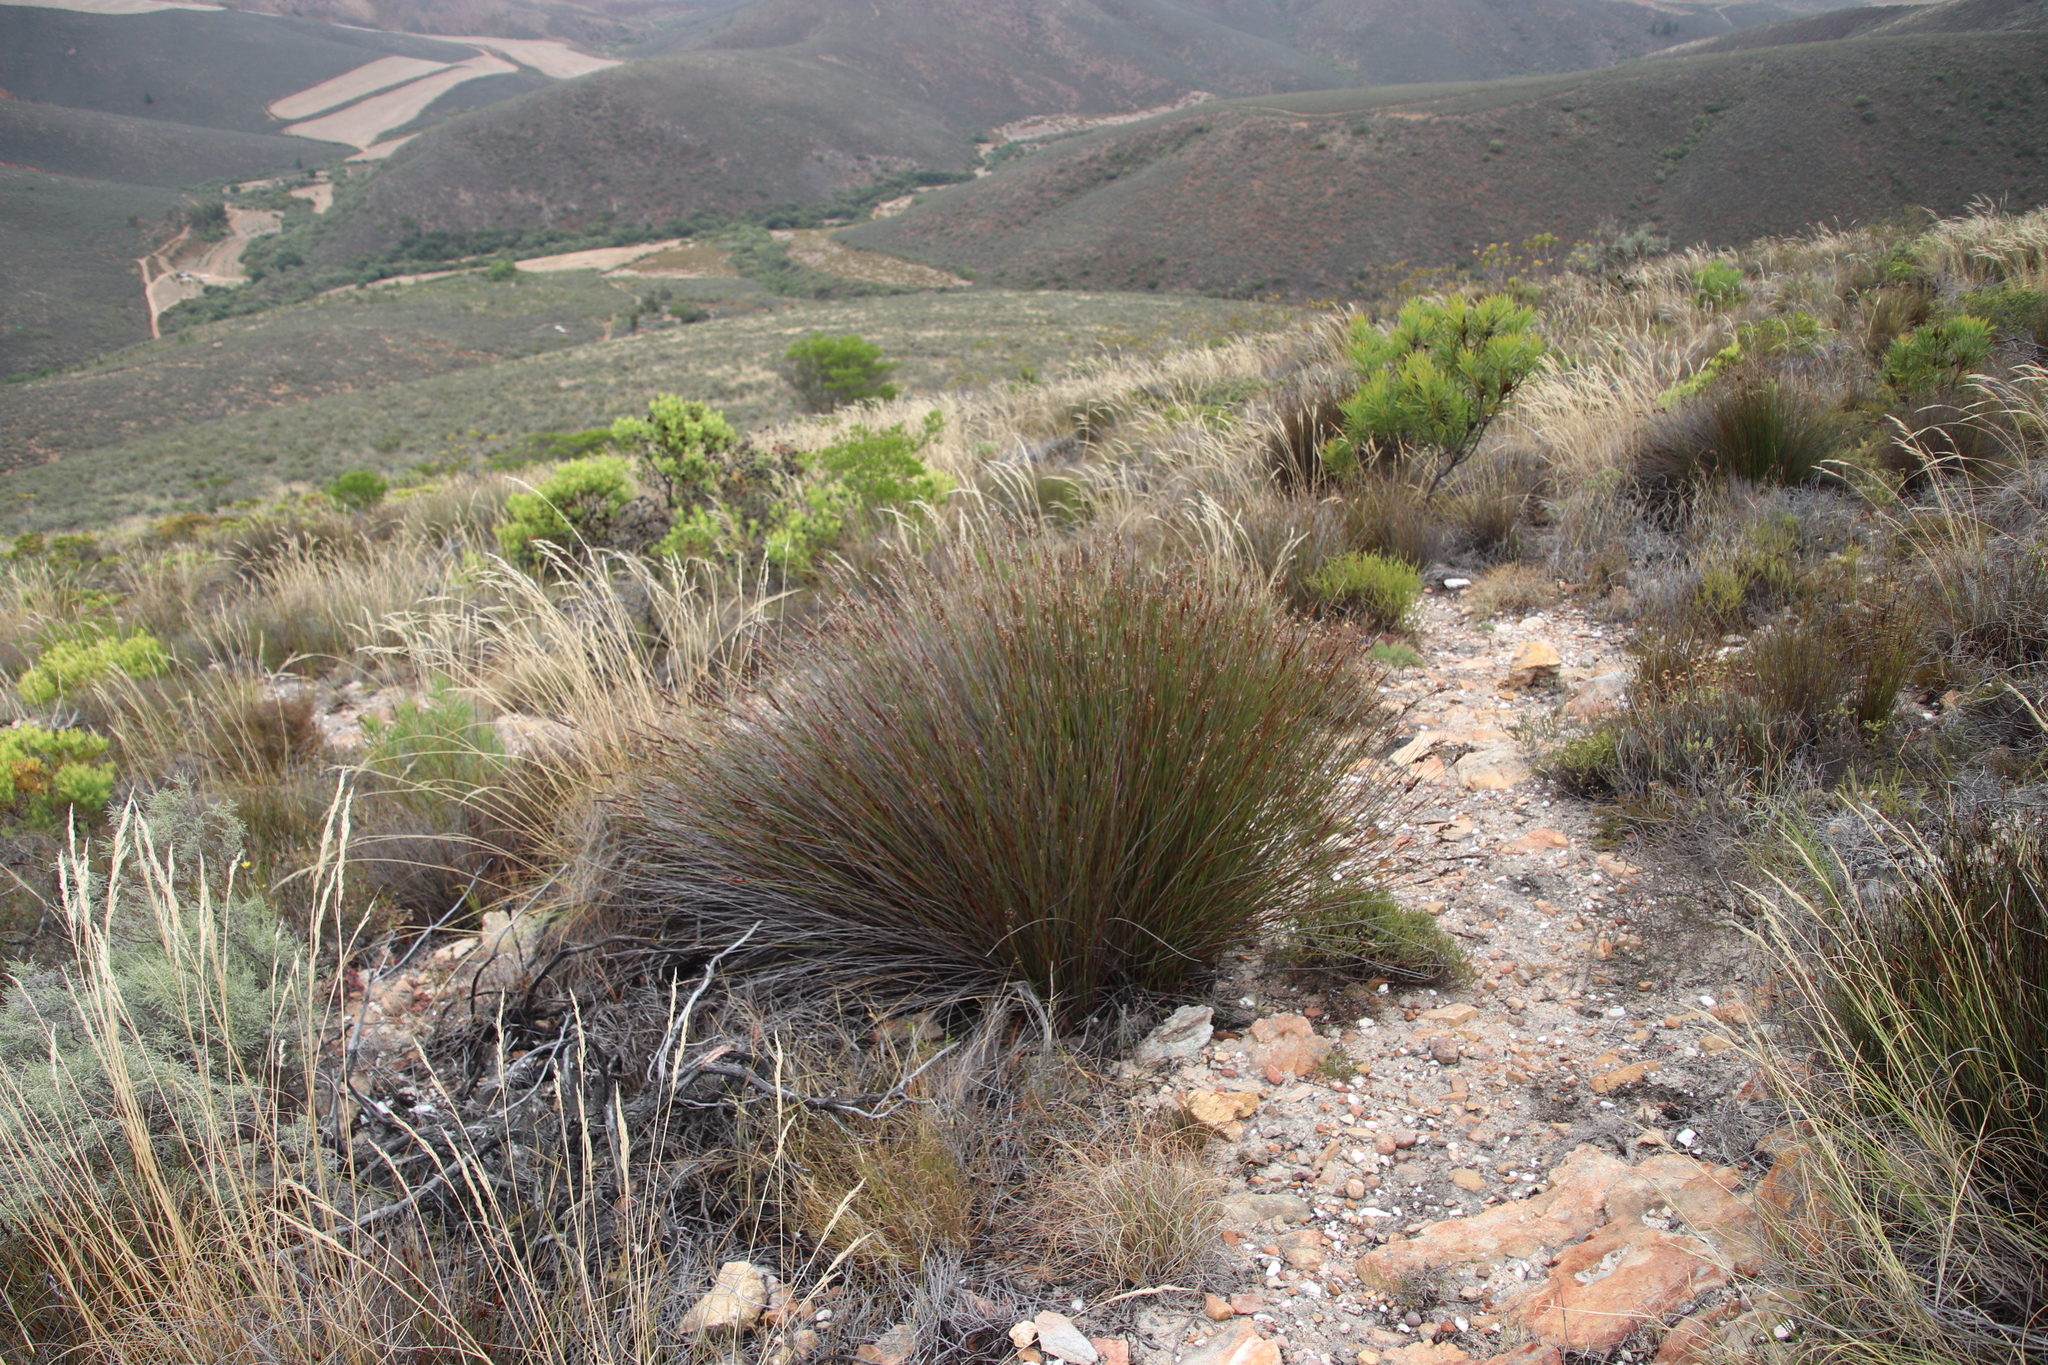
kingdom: Plantae
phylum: Tracheophyta
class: Liliopsida
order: Poales
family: Restionaceae
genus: Hypodiscus
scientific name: Hypodiscus argenteus
